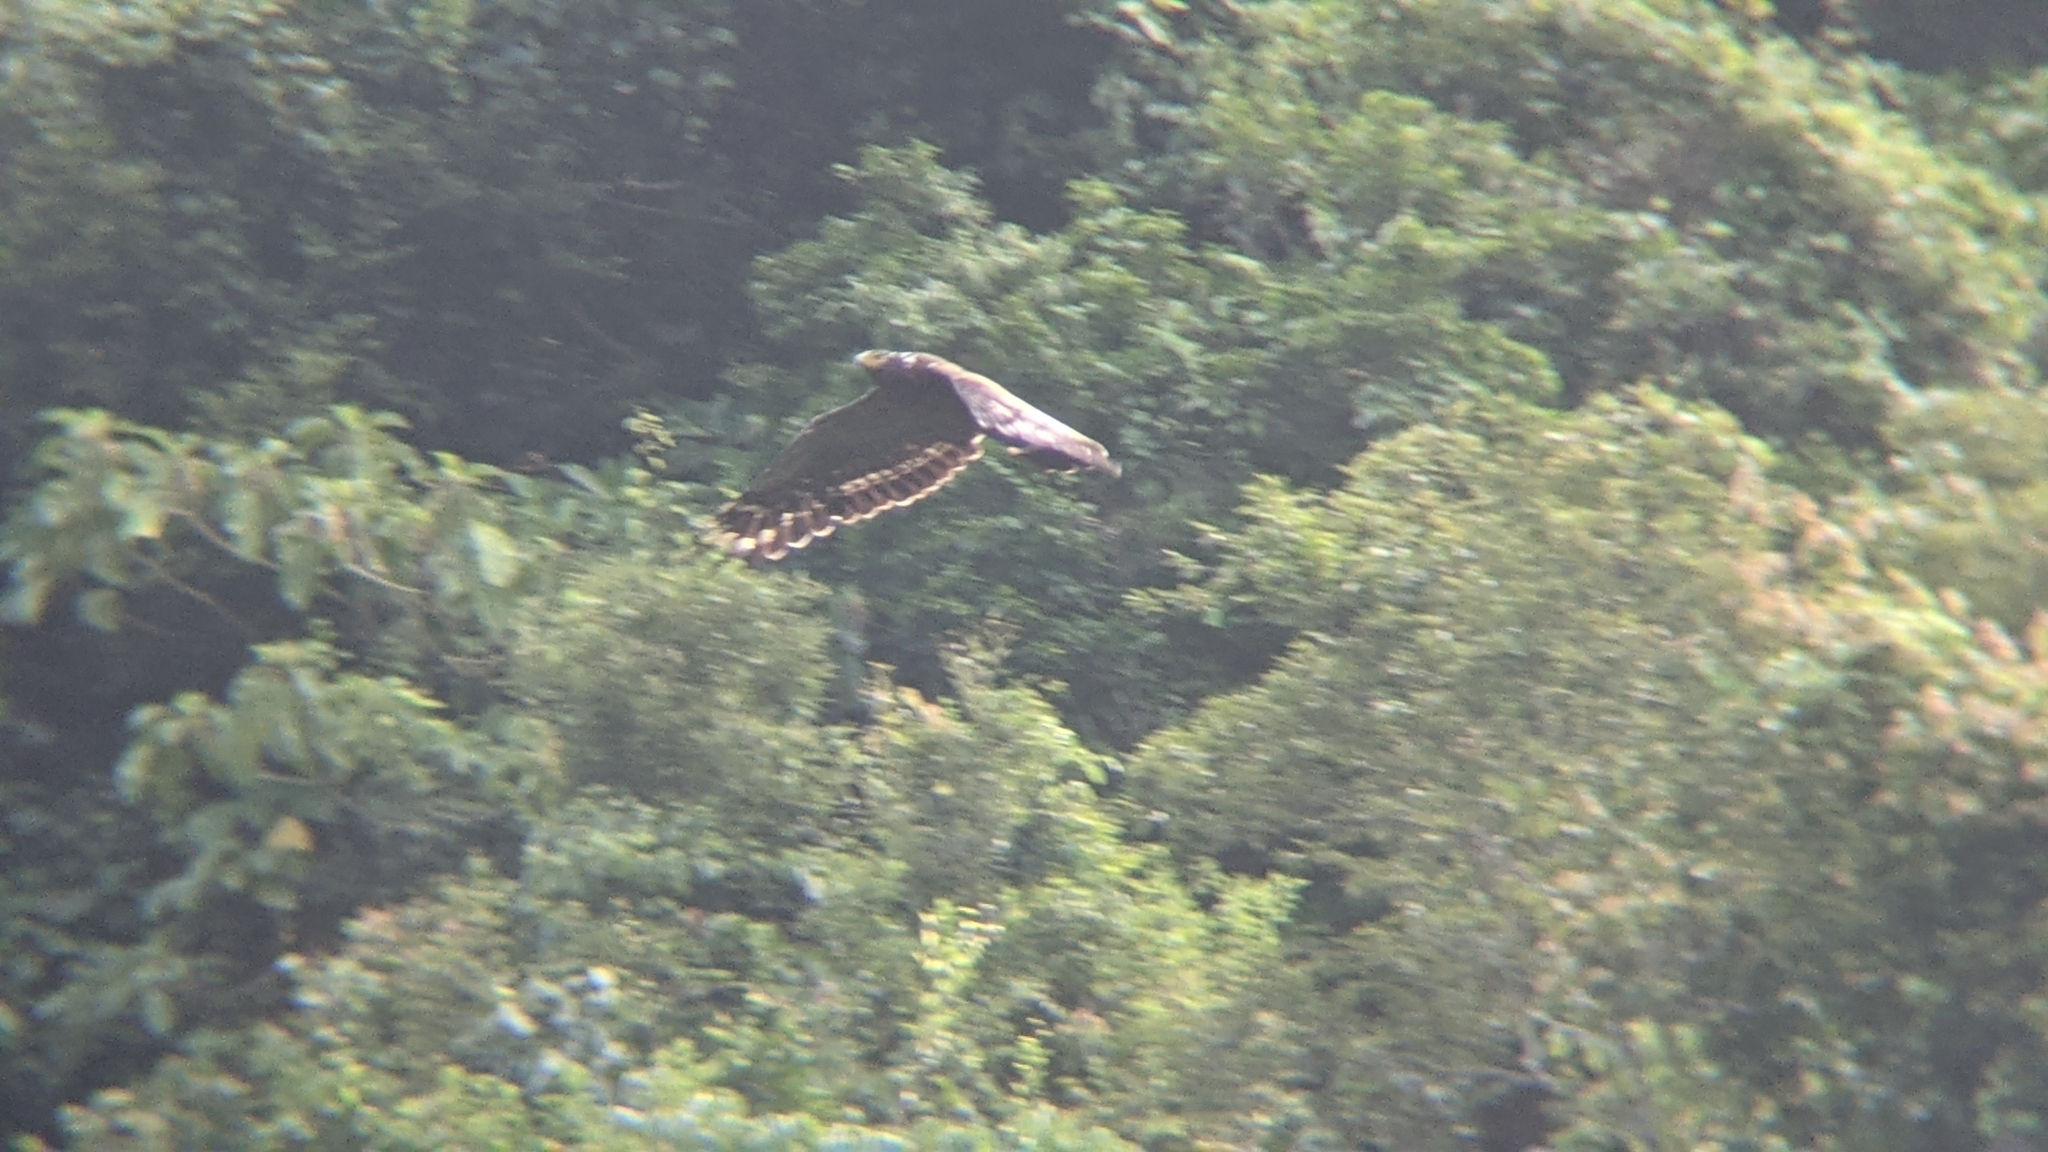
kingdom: Animalia
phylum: Chordata
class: Aves
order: Accipitriformes
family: Accipitridae
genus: Spilornis
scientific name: Spilornis cheela
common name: Crested serpent eagle
